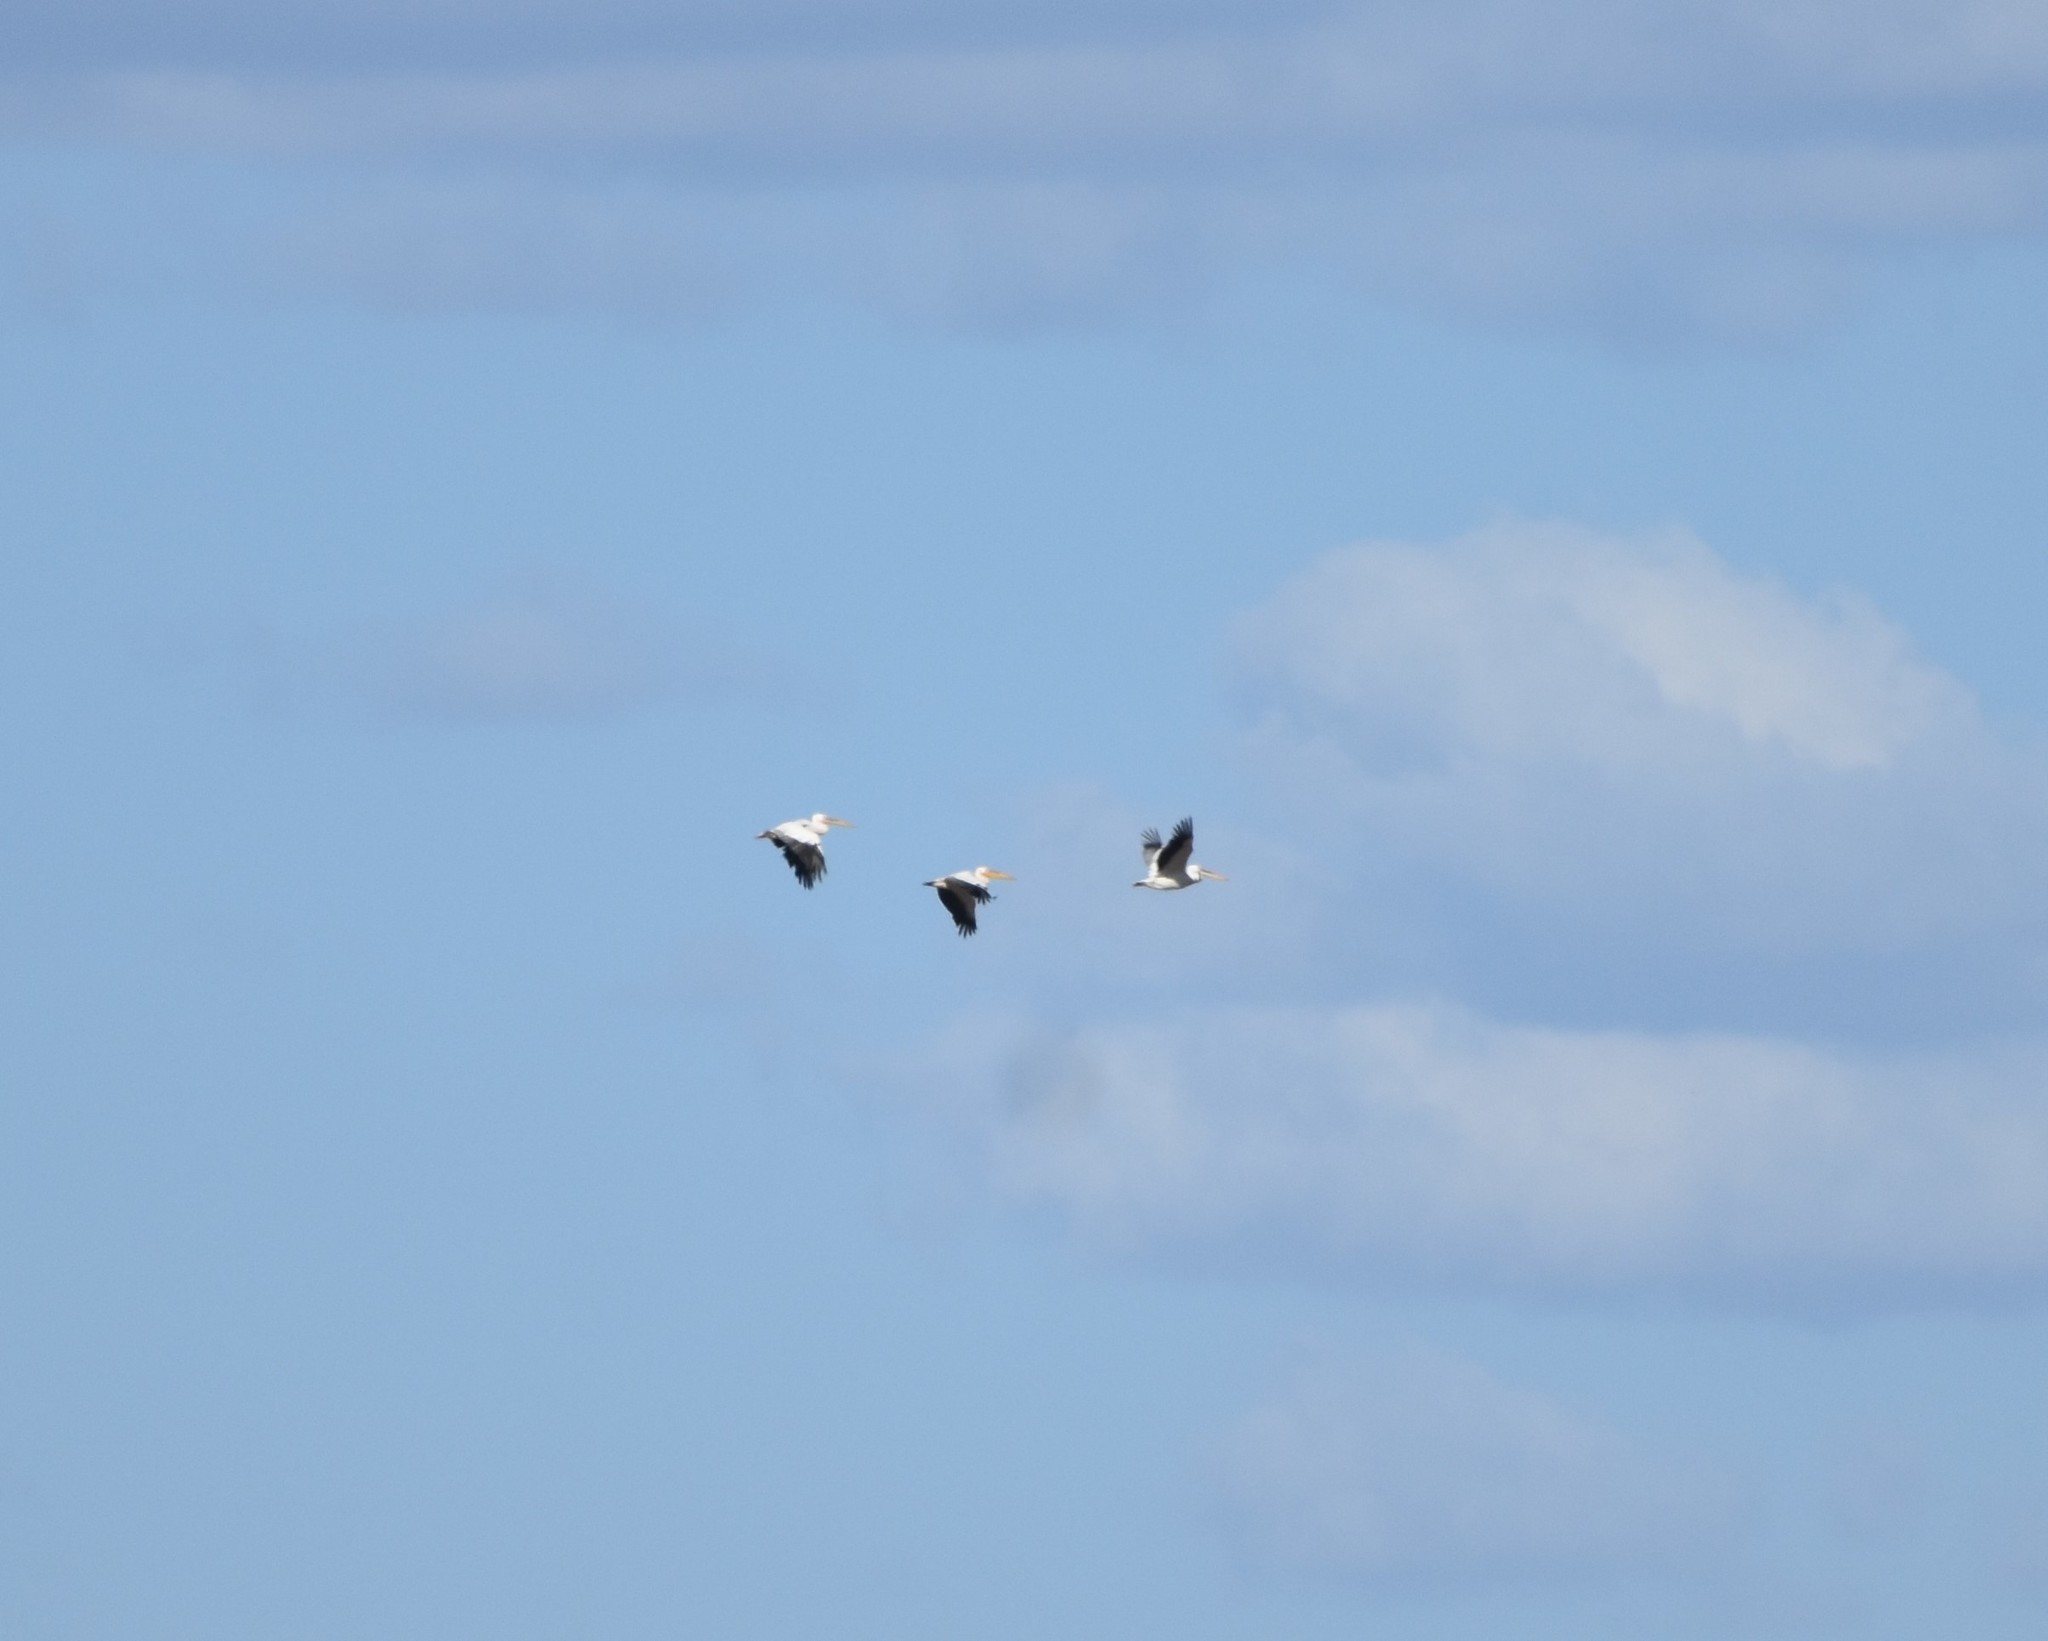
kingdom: Animalia
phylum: Chordata
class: Aves
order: Pelecaniformes
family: Pelecanidae
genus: Pelecanus
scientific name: Pelecanus onocrotalus
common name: Great white pelican
